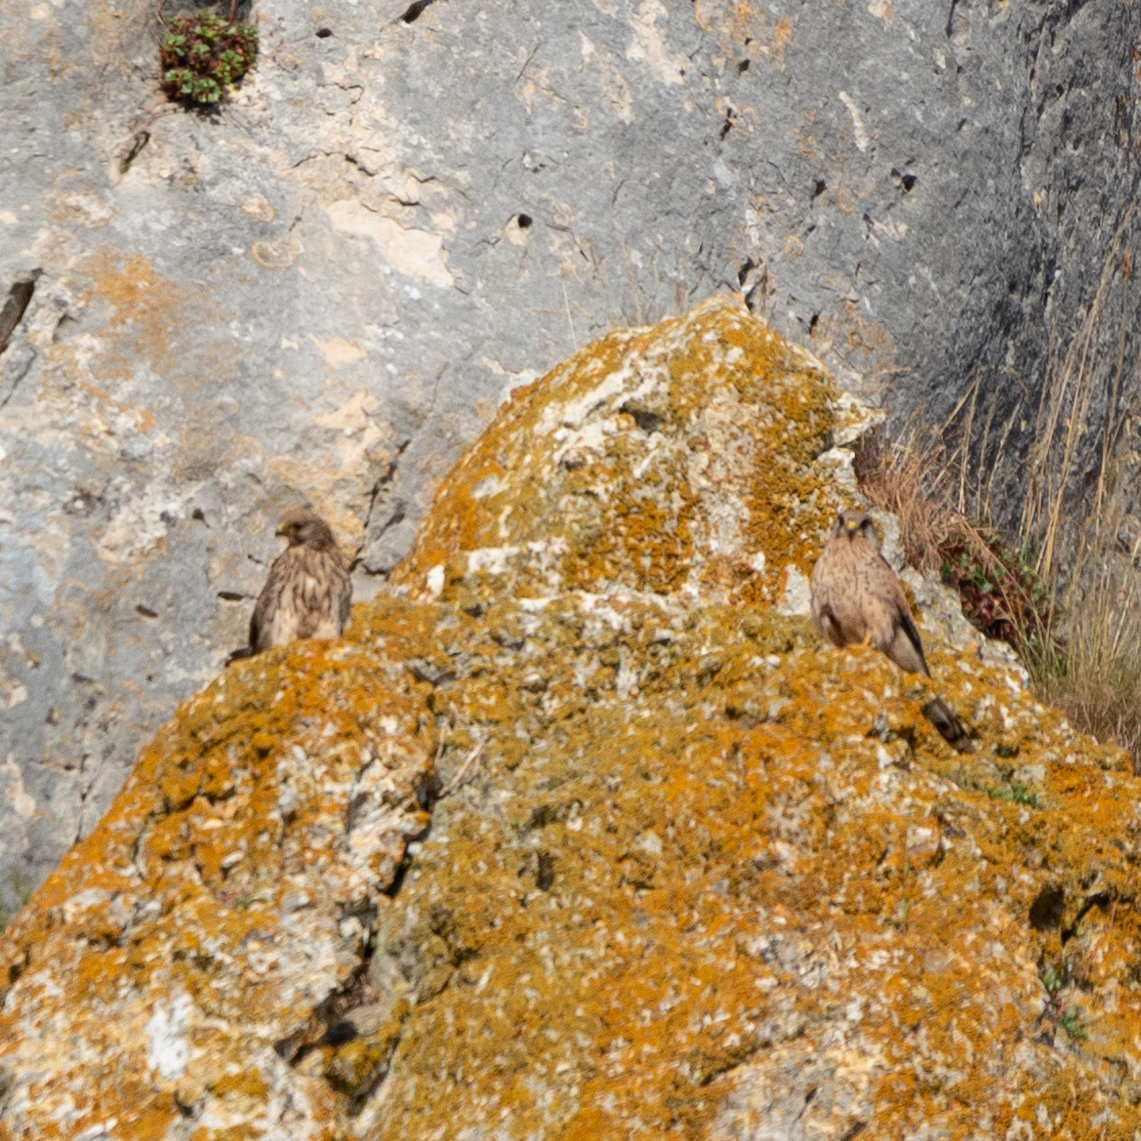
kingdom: Animalia
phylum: Chordata
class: Aves
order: Falconiformes
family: Falconidae
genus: Falco
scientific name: Falco tinnunculus
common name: Common kestrel
